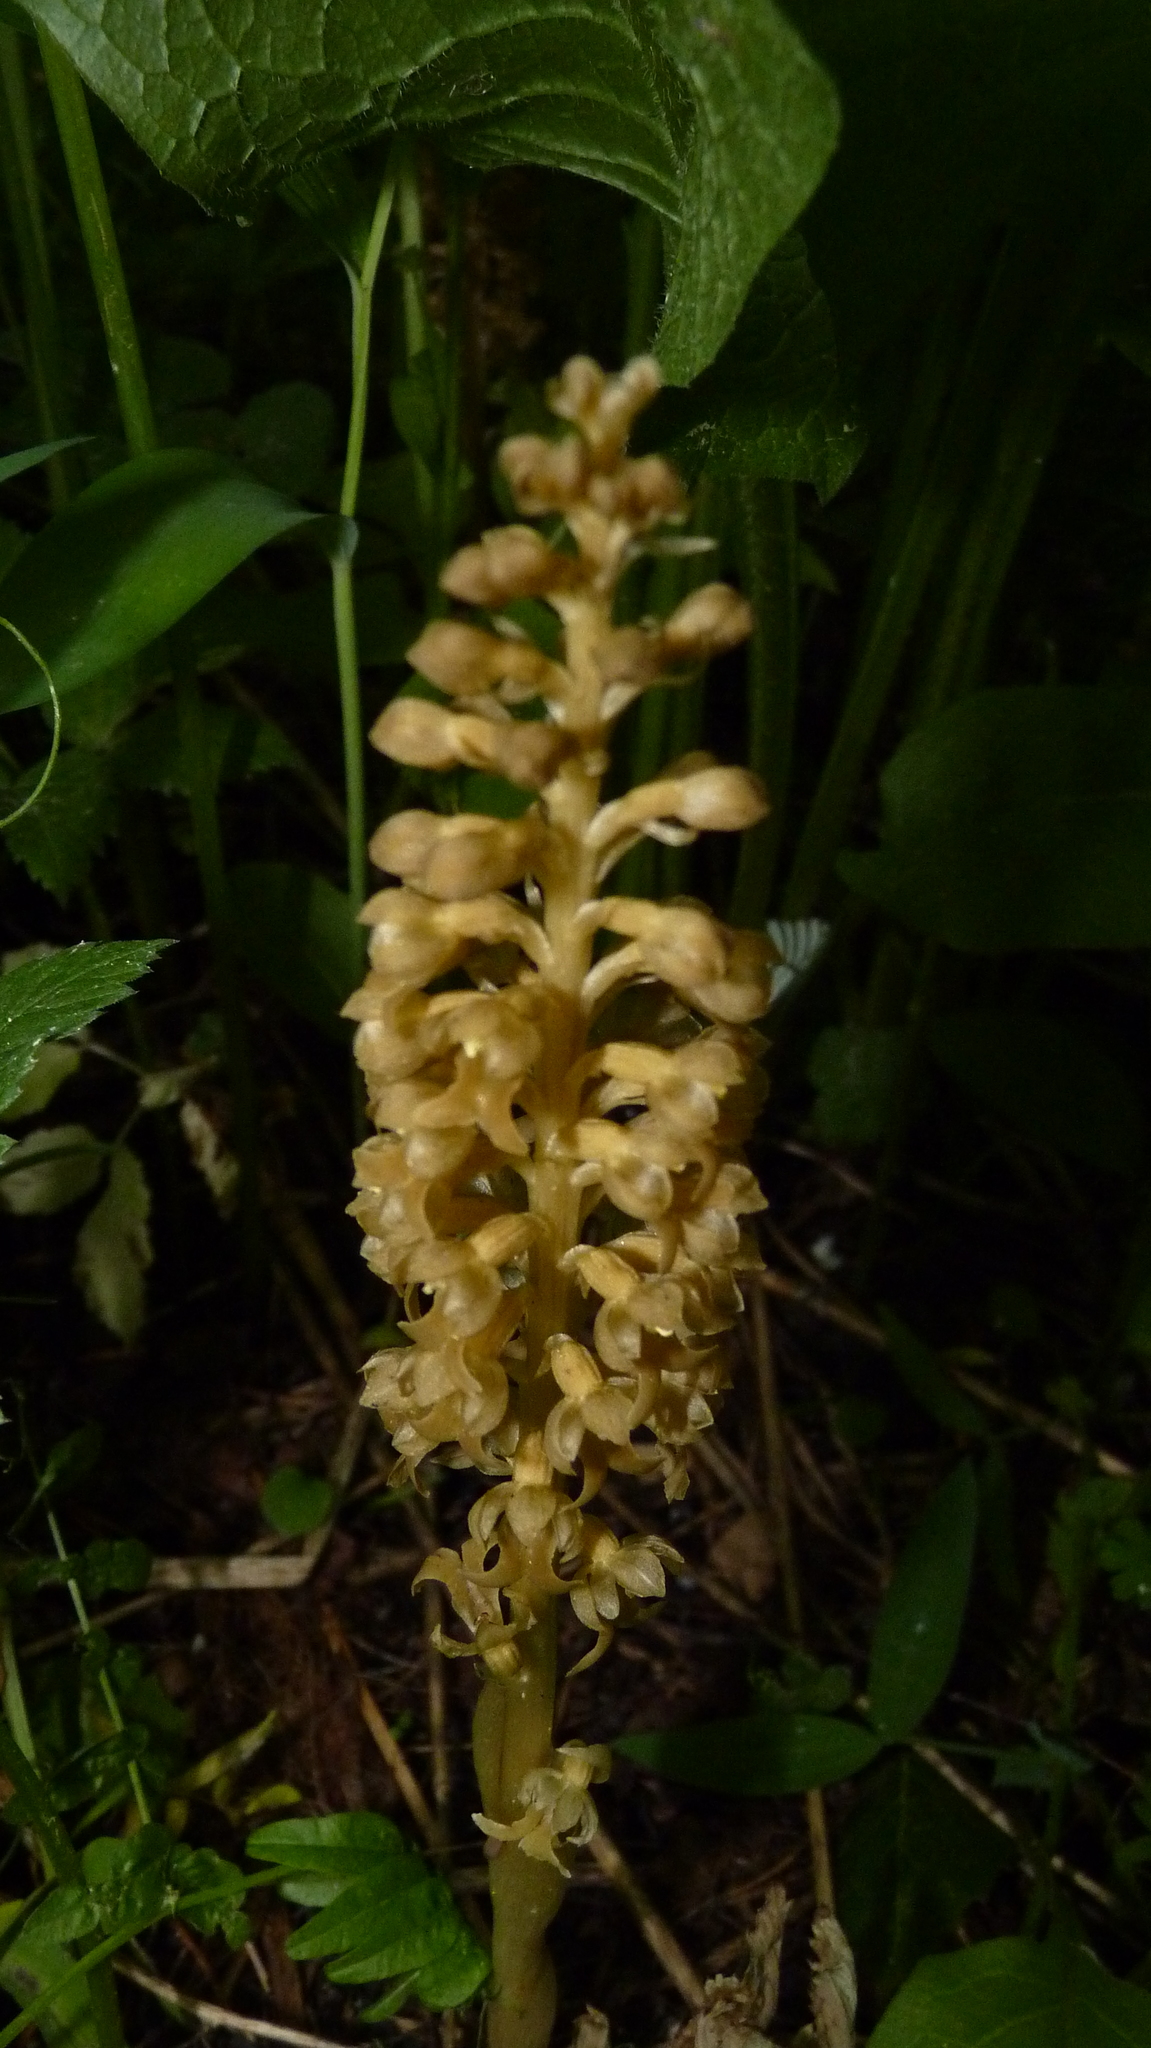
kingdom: Plantae
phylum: Tracheophyta
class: Liliopsida
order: Asparagales
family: Orchidaceae
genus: Neottia
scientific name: Neottia nidus-avis
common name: Bird's-nest orchid
